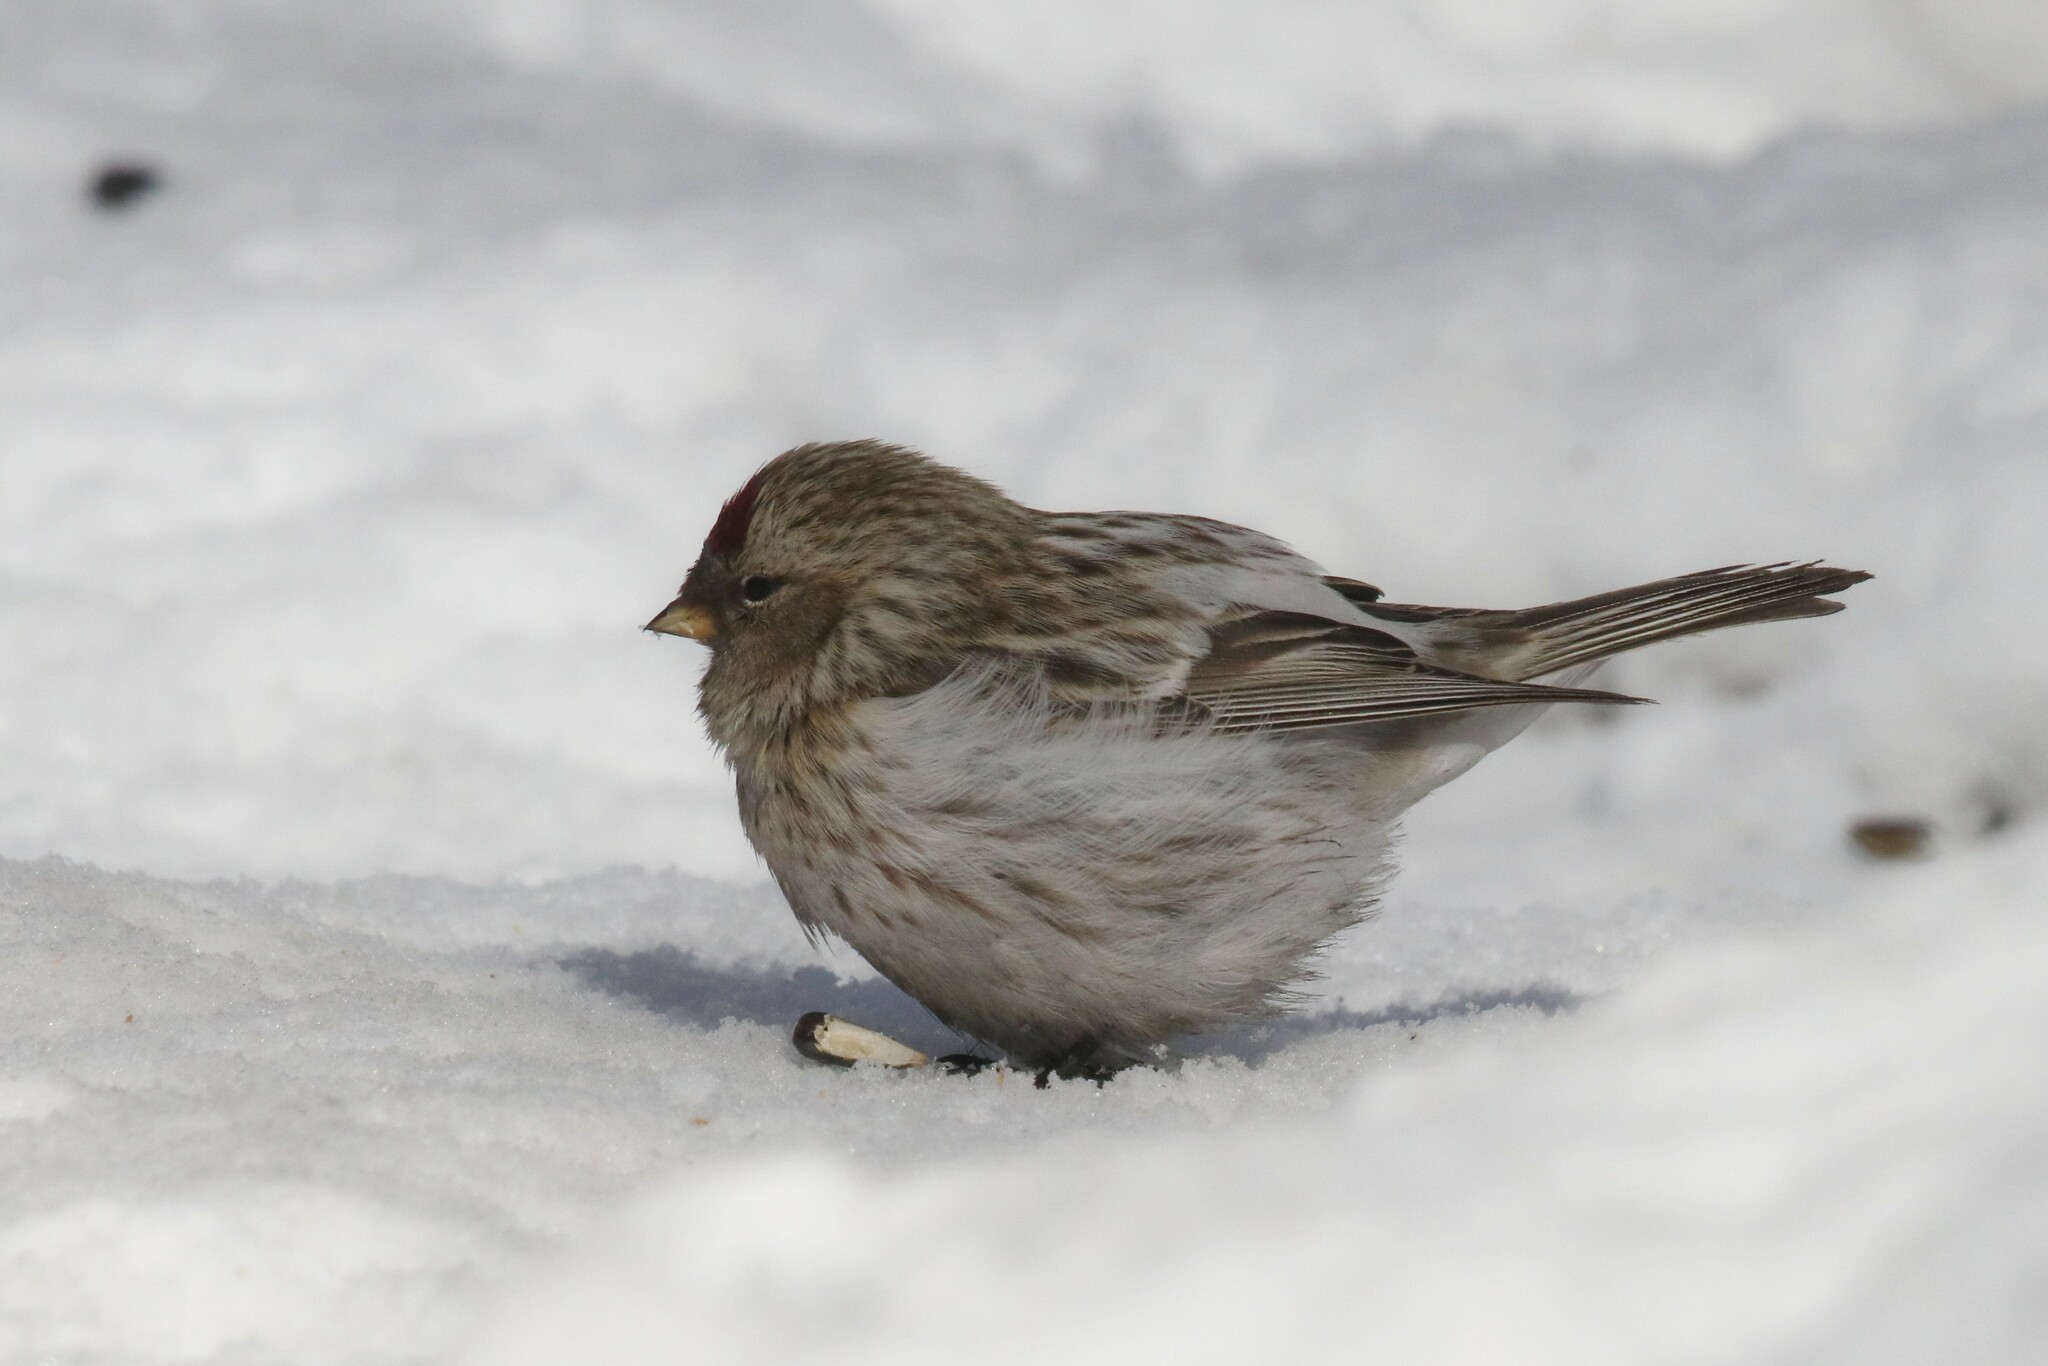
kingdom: Animalia
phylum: Chordata
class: Aves
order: Passeriformes
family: Fringillidae
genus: Acanthis
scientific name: Acanthis hornemanni
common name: Arctic redpoll
